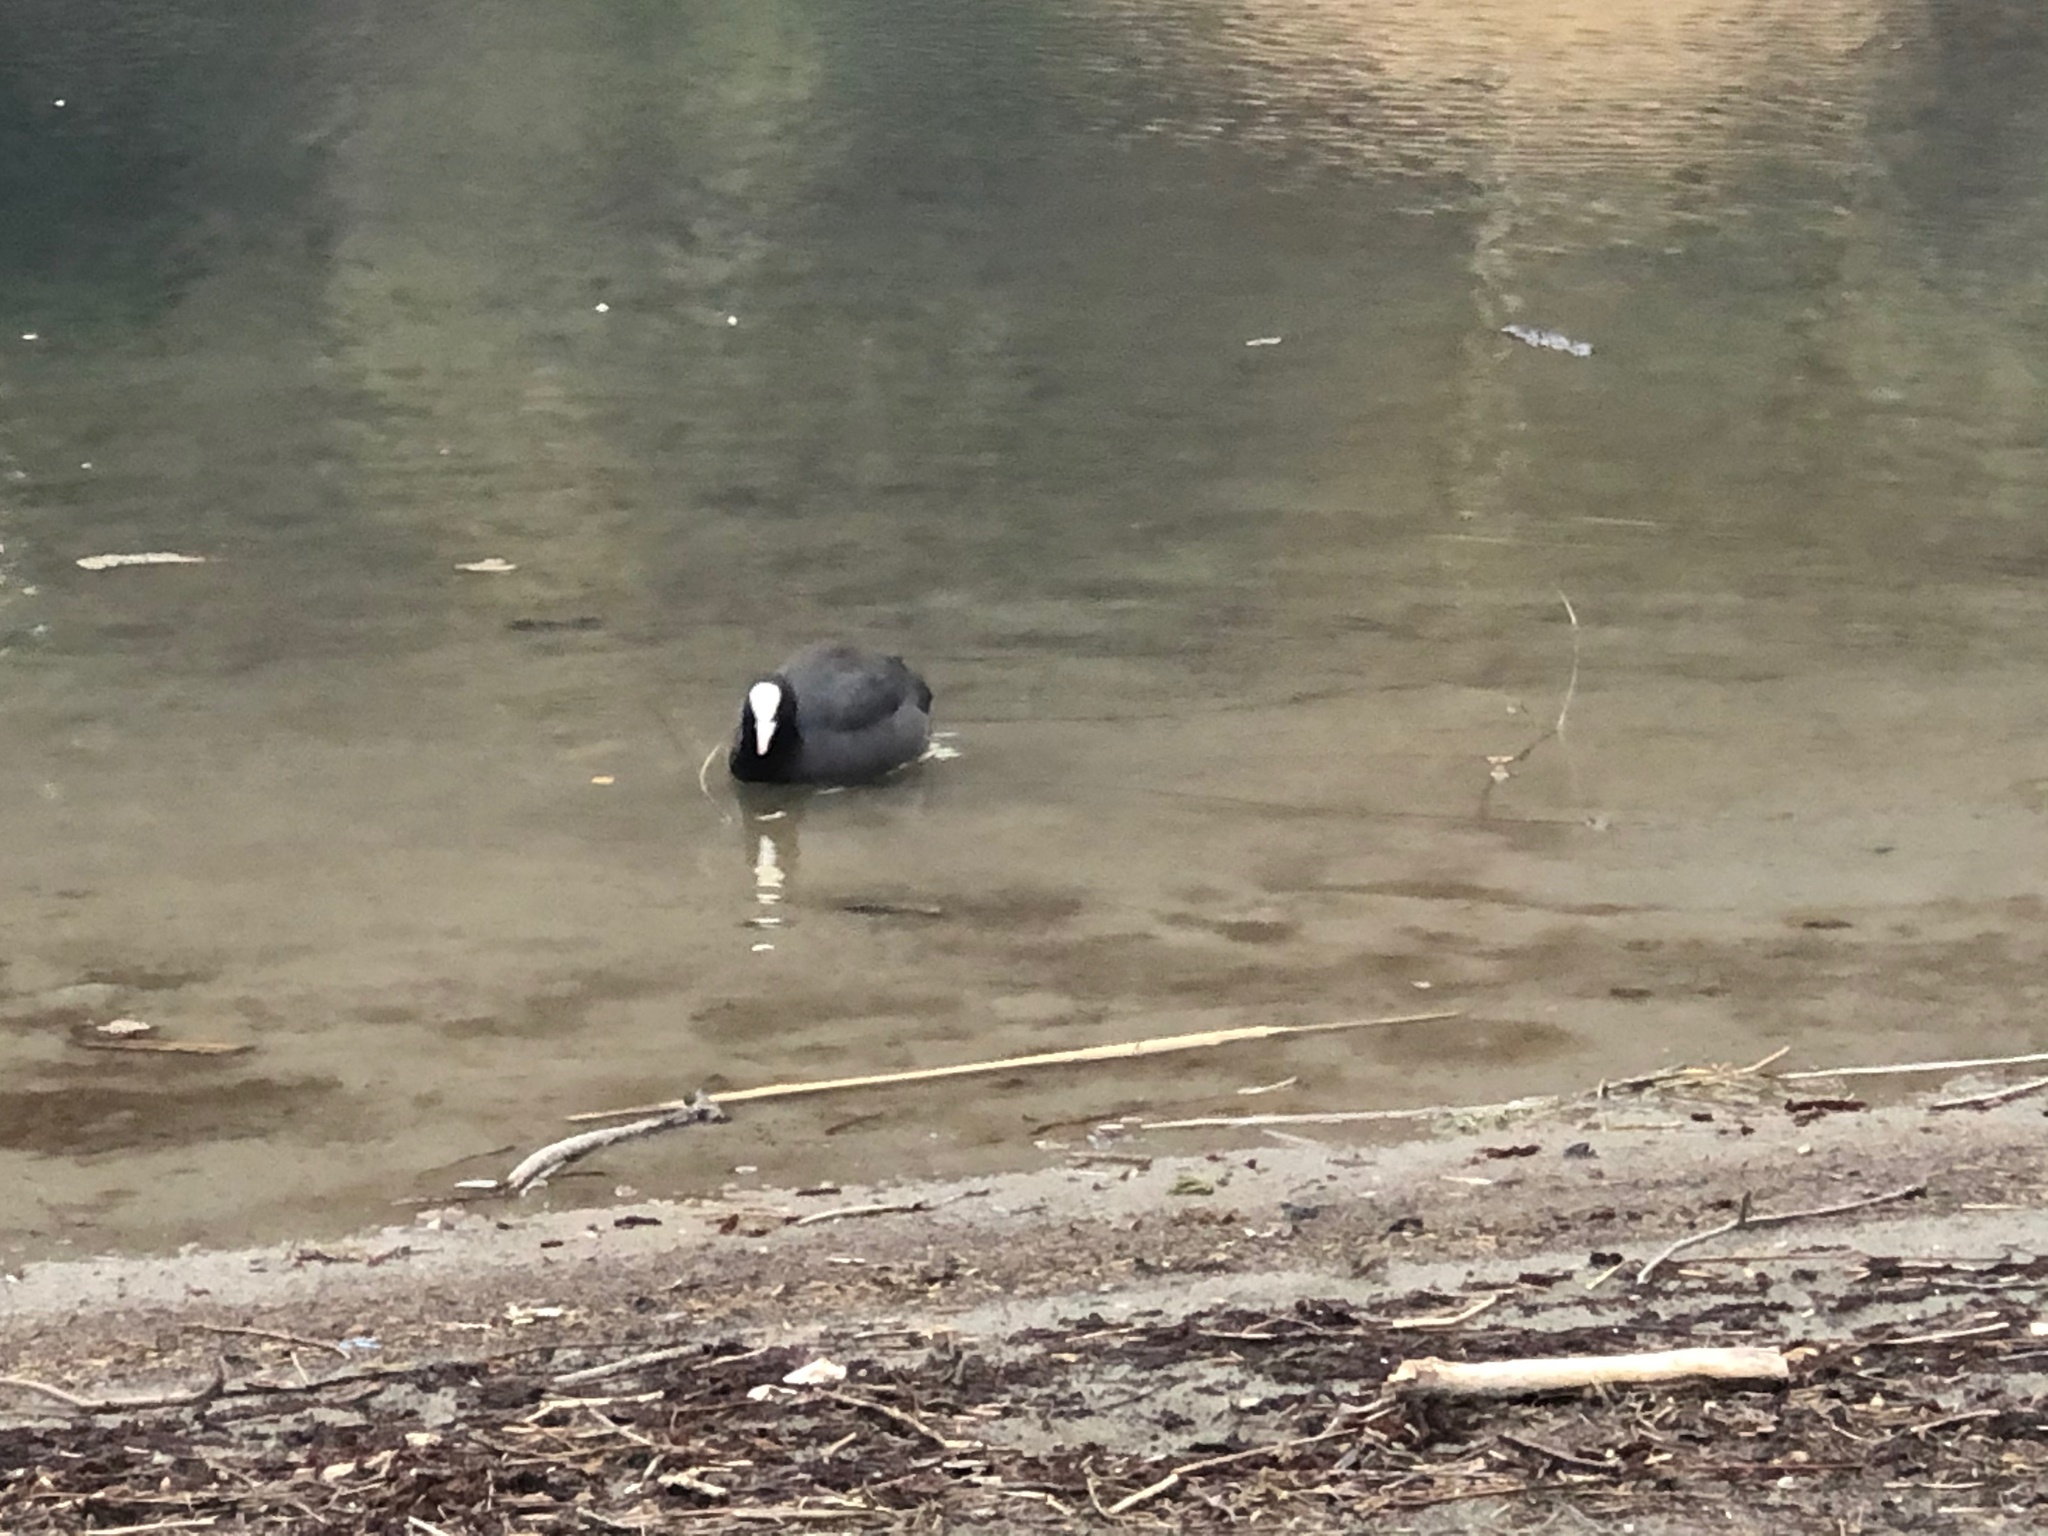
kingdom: Animalia
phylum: Chordata
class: Aves
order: Gruiformes
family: Rallidae
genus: Fulica
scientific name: Fulica atra
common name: Eurasian coot
